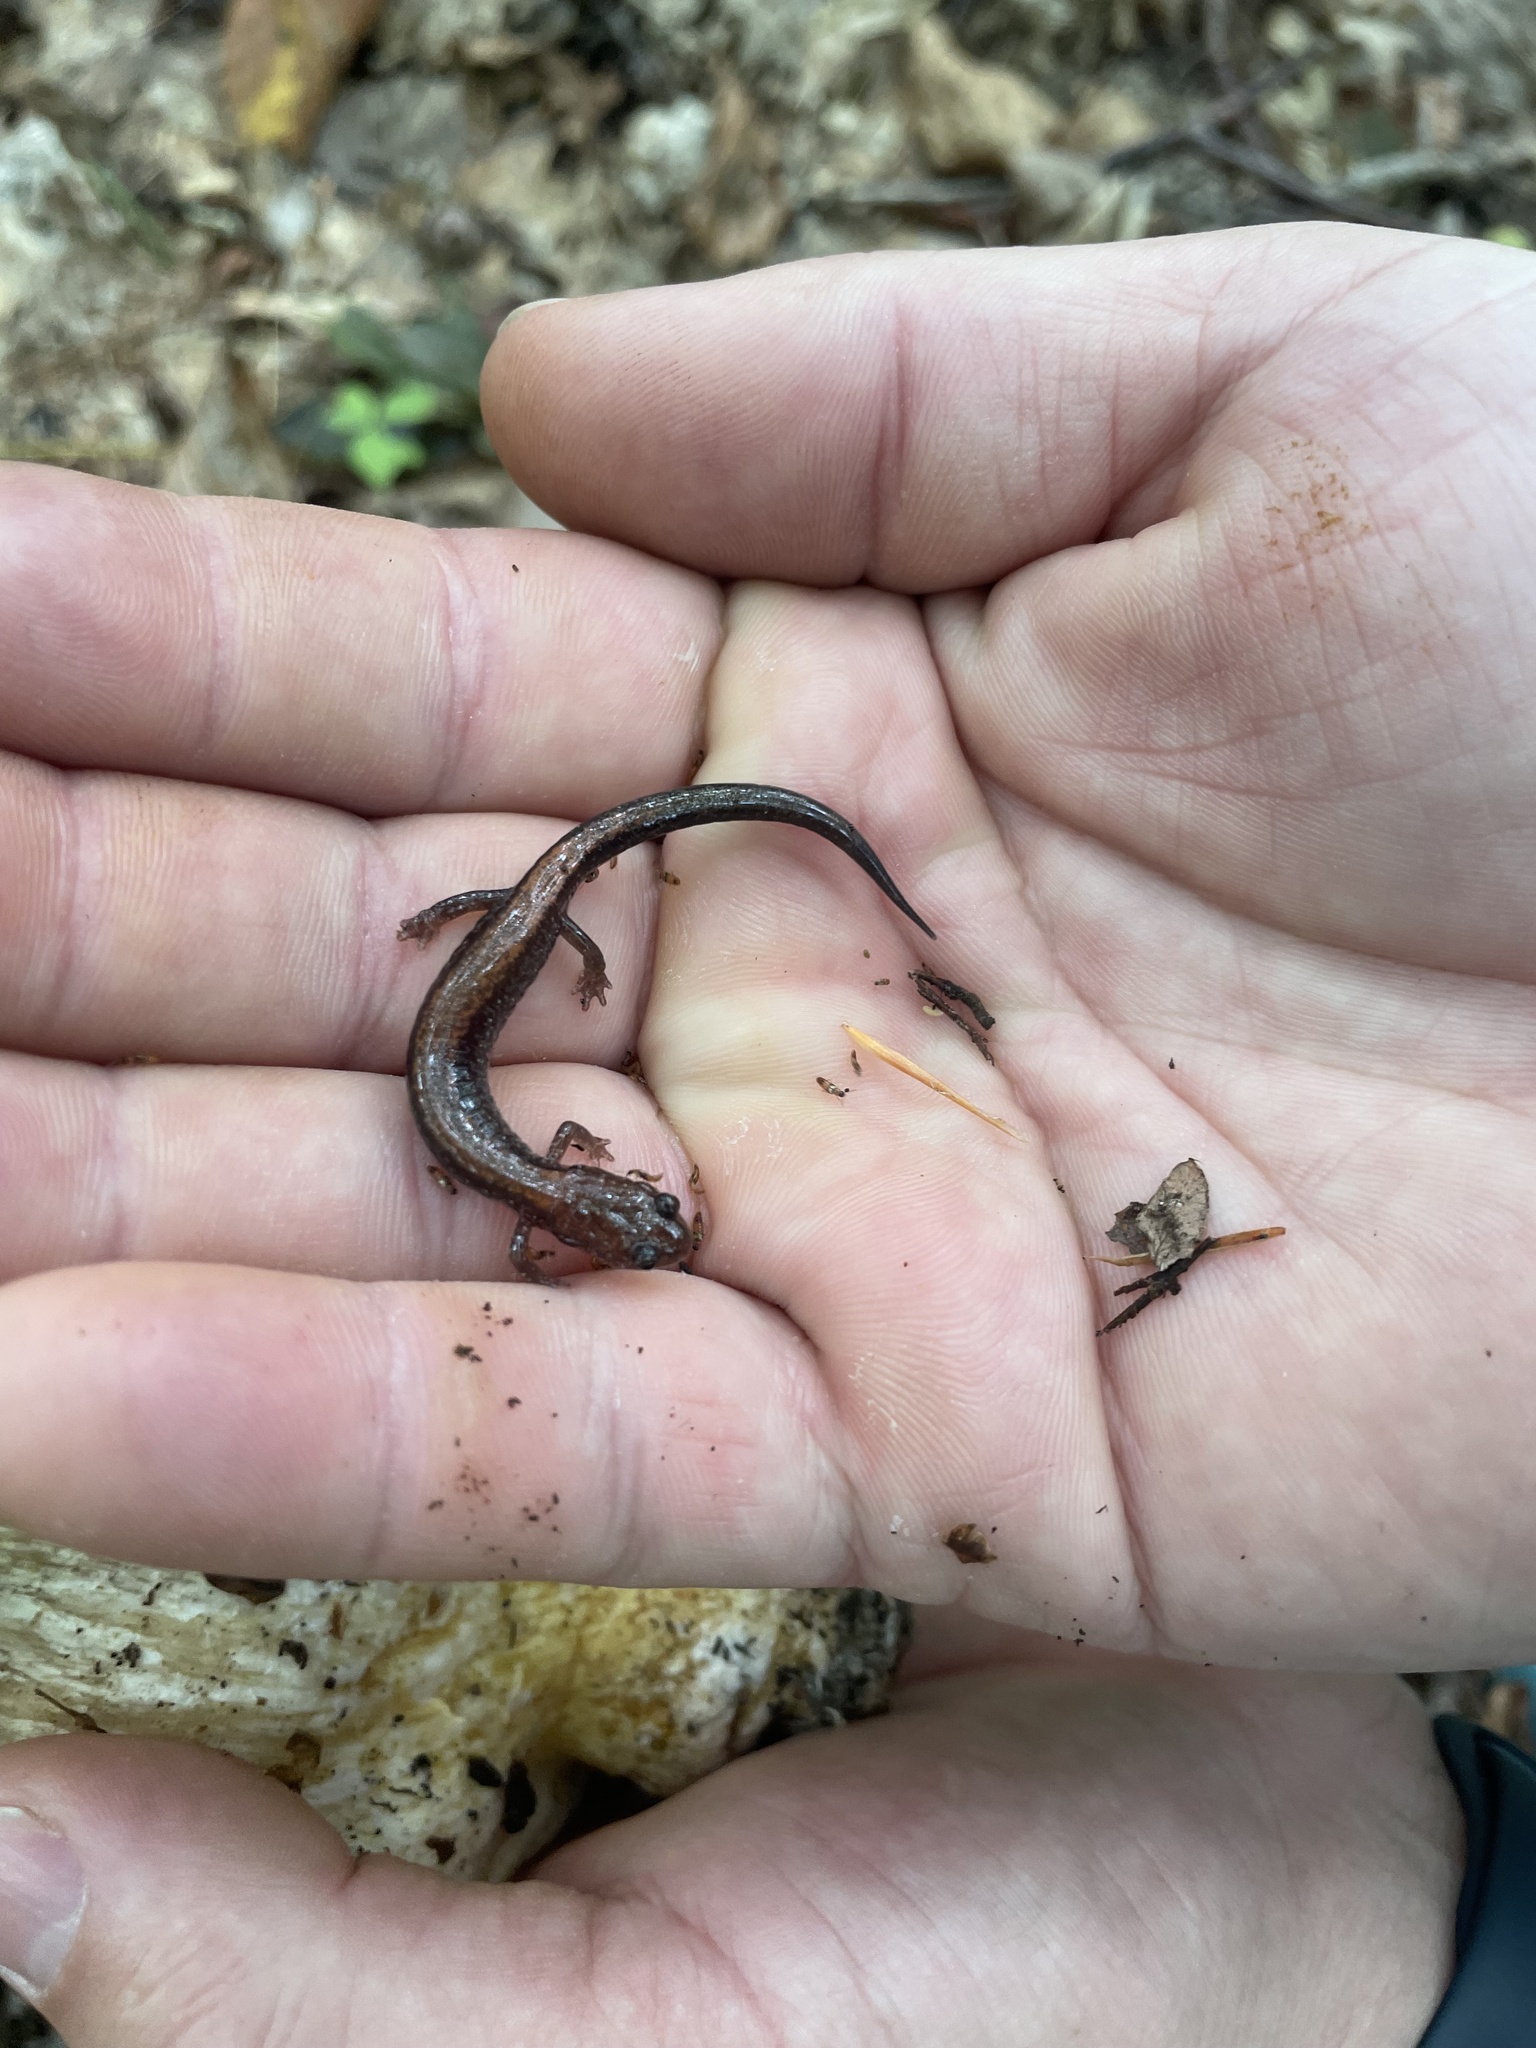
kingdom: Animalia
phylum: Chordata
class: Amphibia
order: Caudata
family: Plethodontidae
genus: Plethodon
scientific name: Plethodon cinereus
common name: Redback salamander
